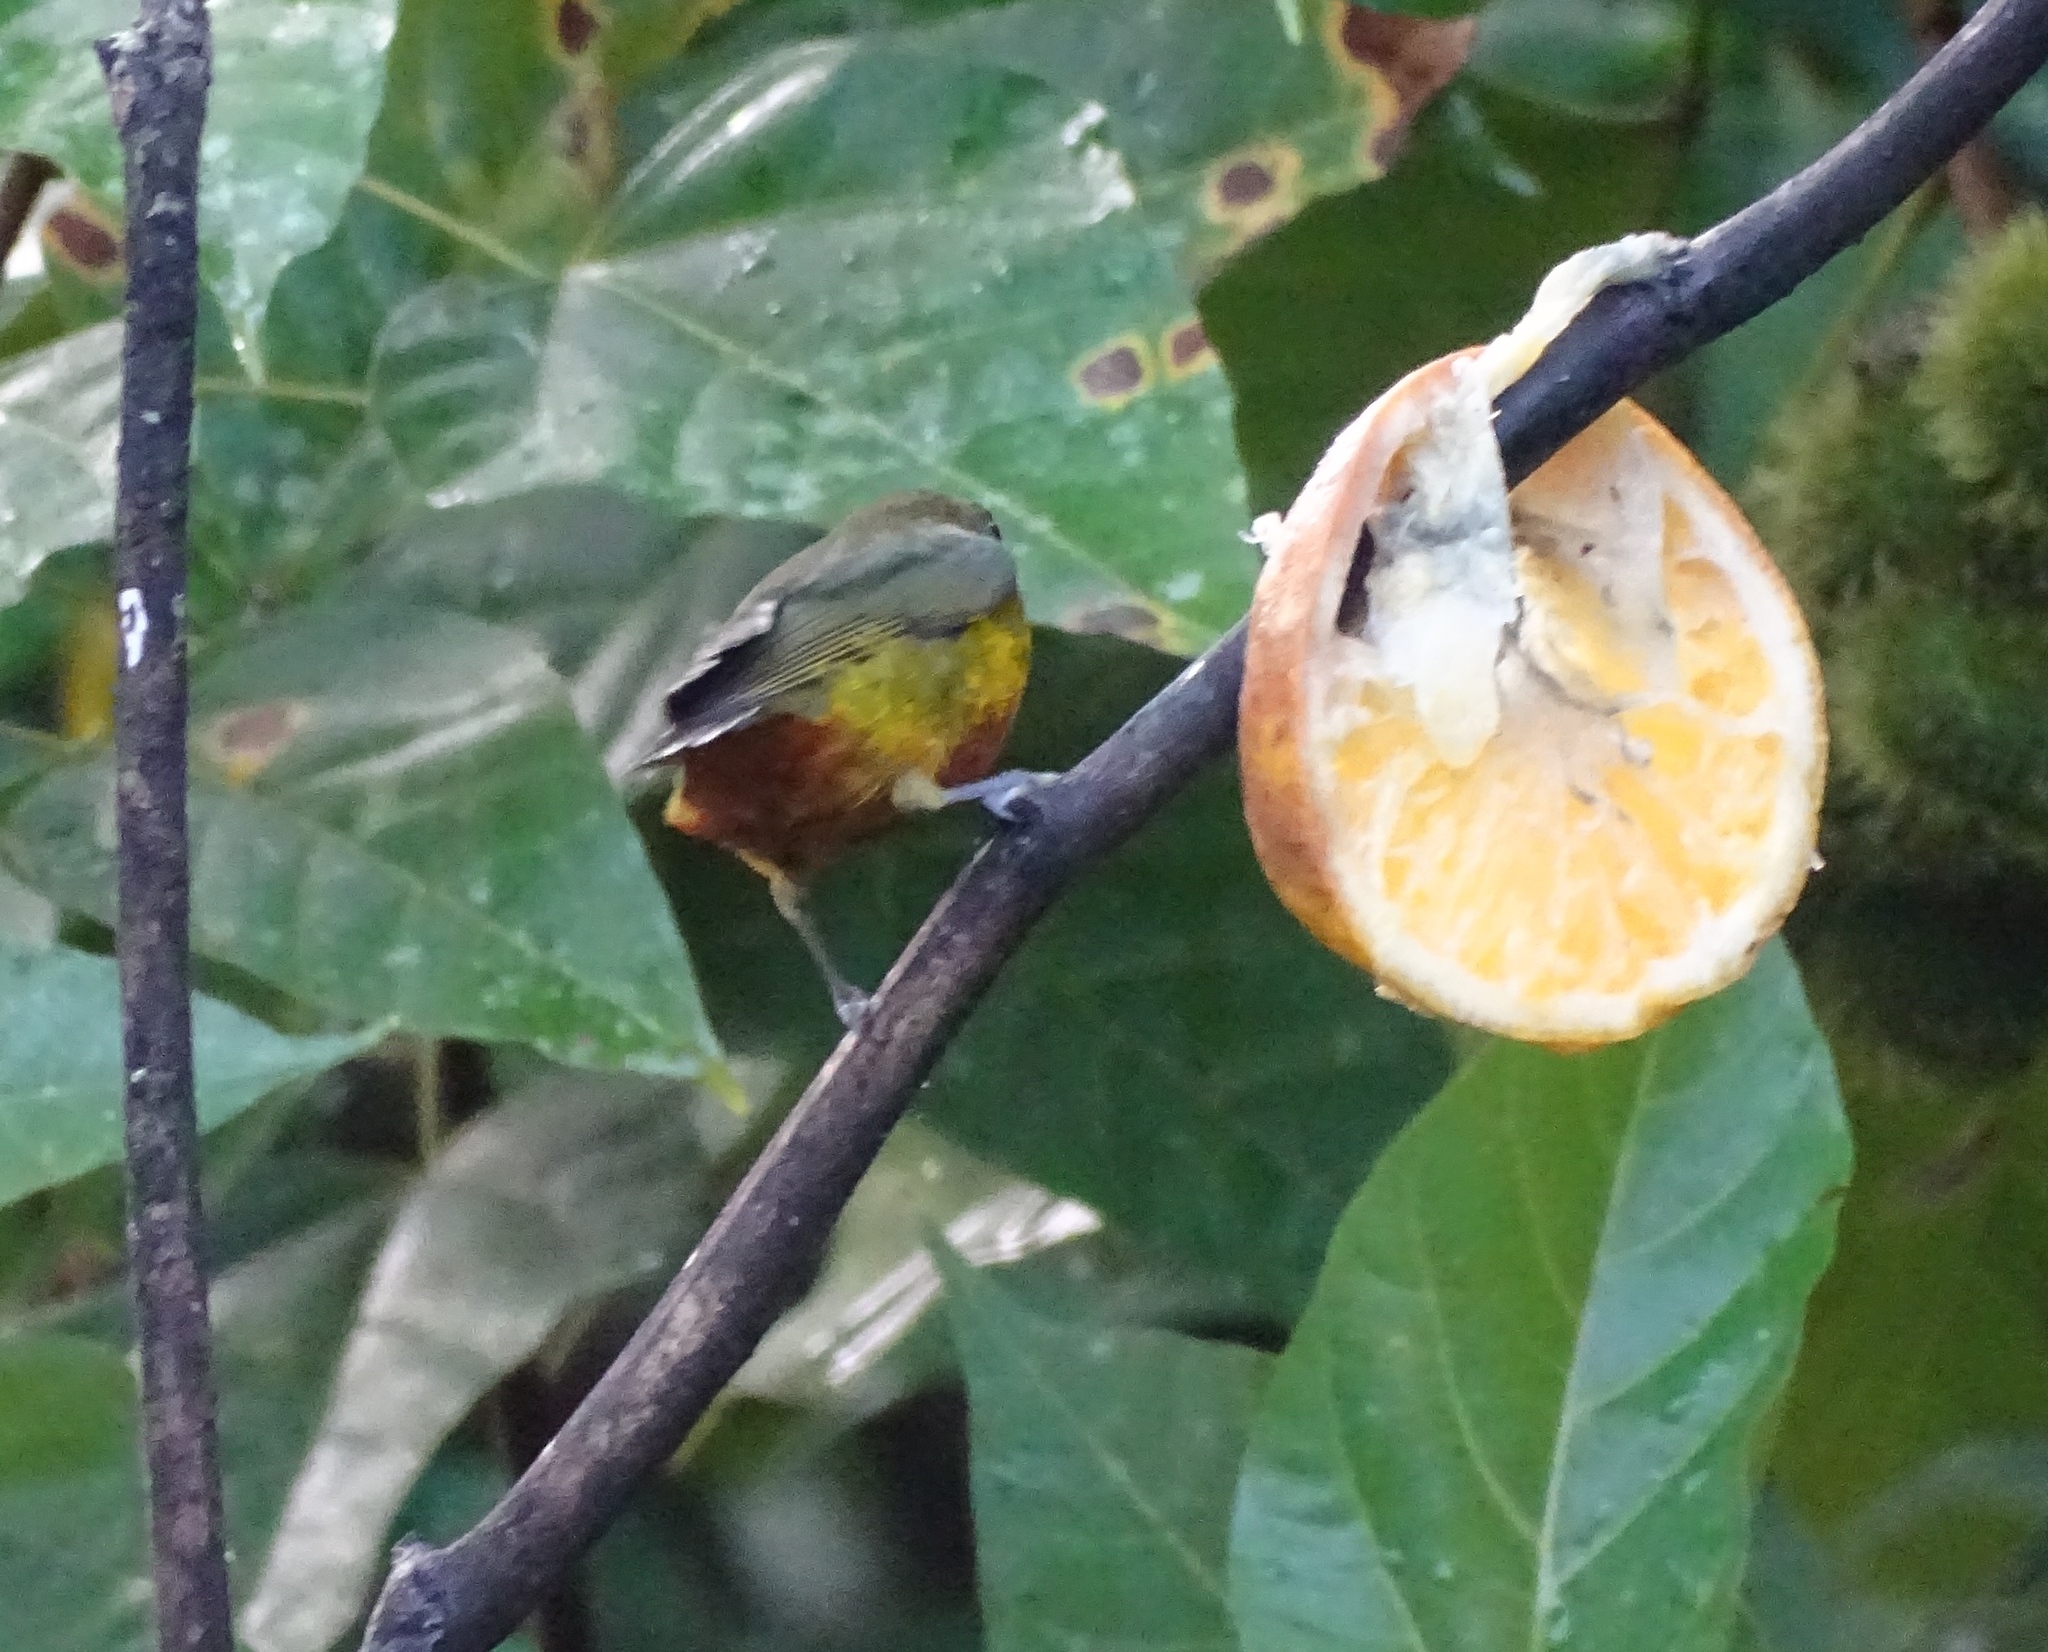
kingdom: Animalia
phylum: Chordata
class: Aves
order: Passeriformes
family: Fringillidae
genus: Euphonia
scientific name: Euphonia gouldi
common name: Olive-backed euphonia
